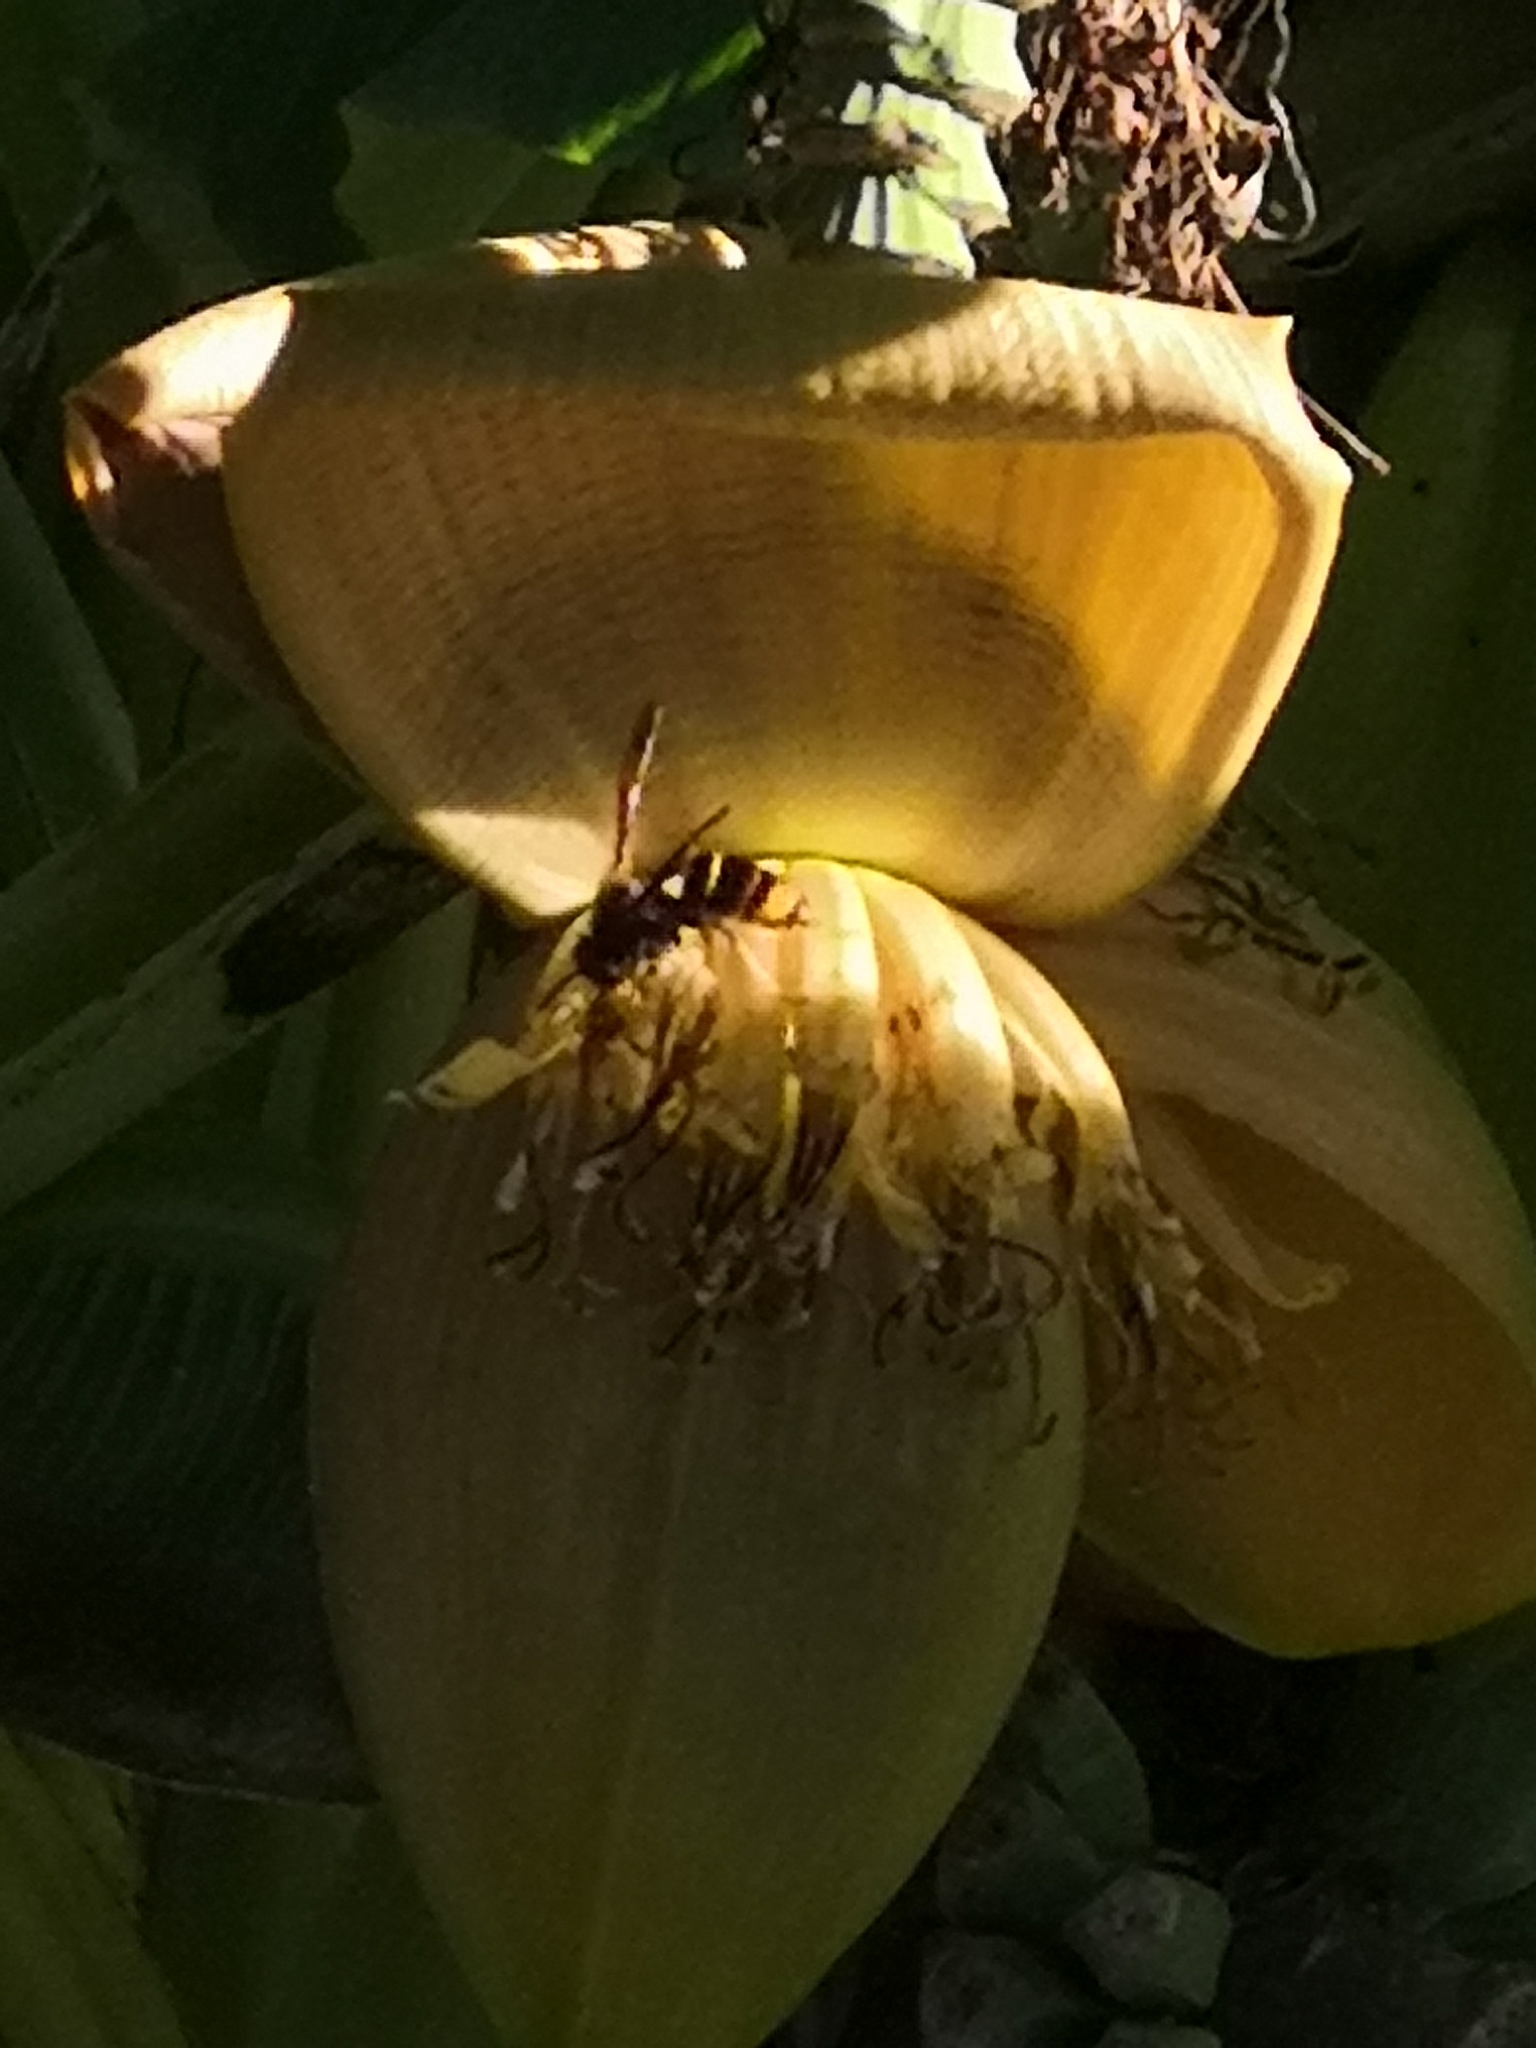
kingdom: Animalia
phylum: Arthropoda
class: Insecta
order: Hymenoptera
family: Vespidae
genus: Vespa
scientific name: Vespa velutina
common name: Asian hornet
